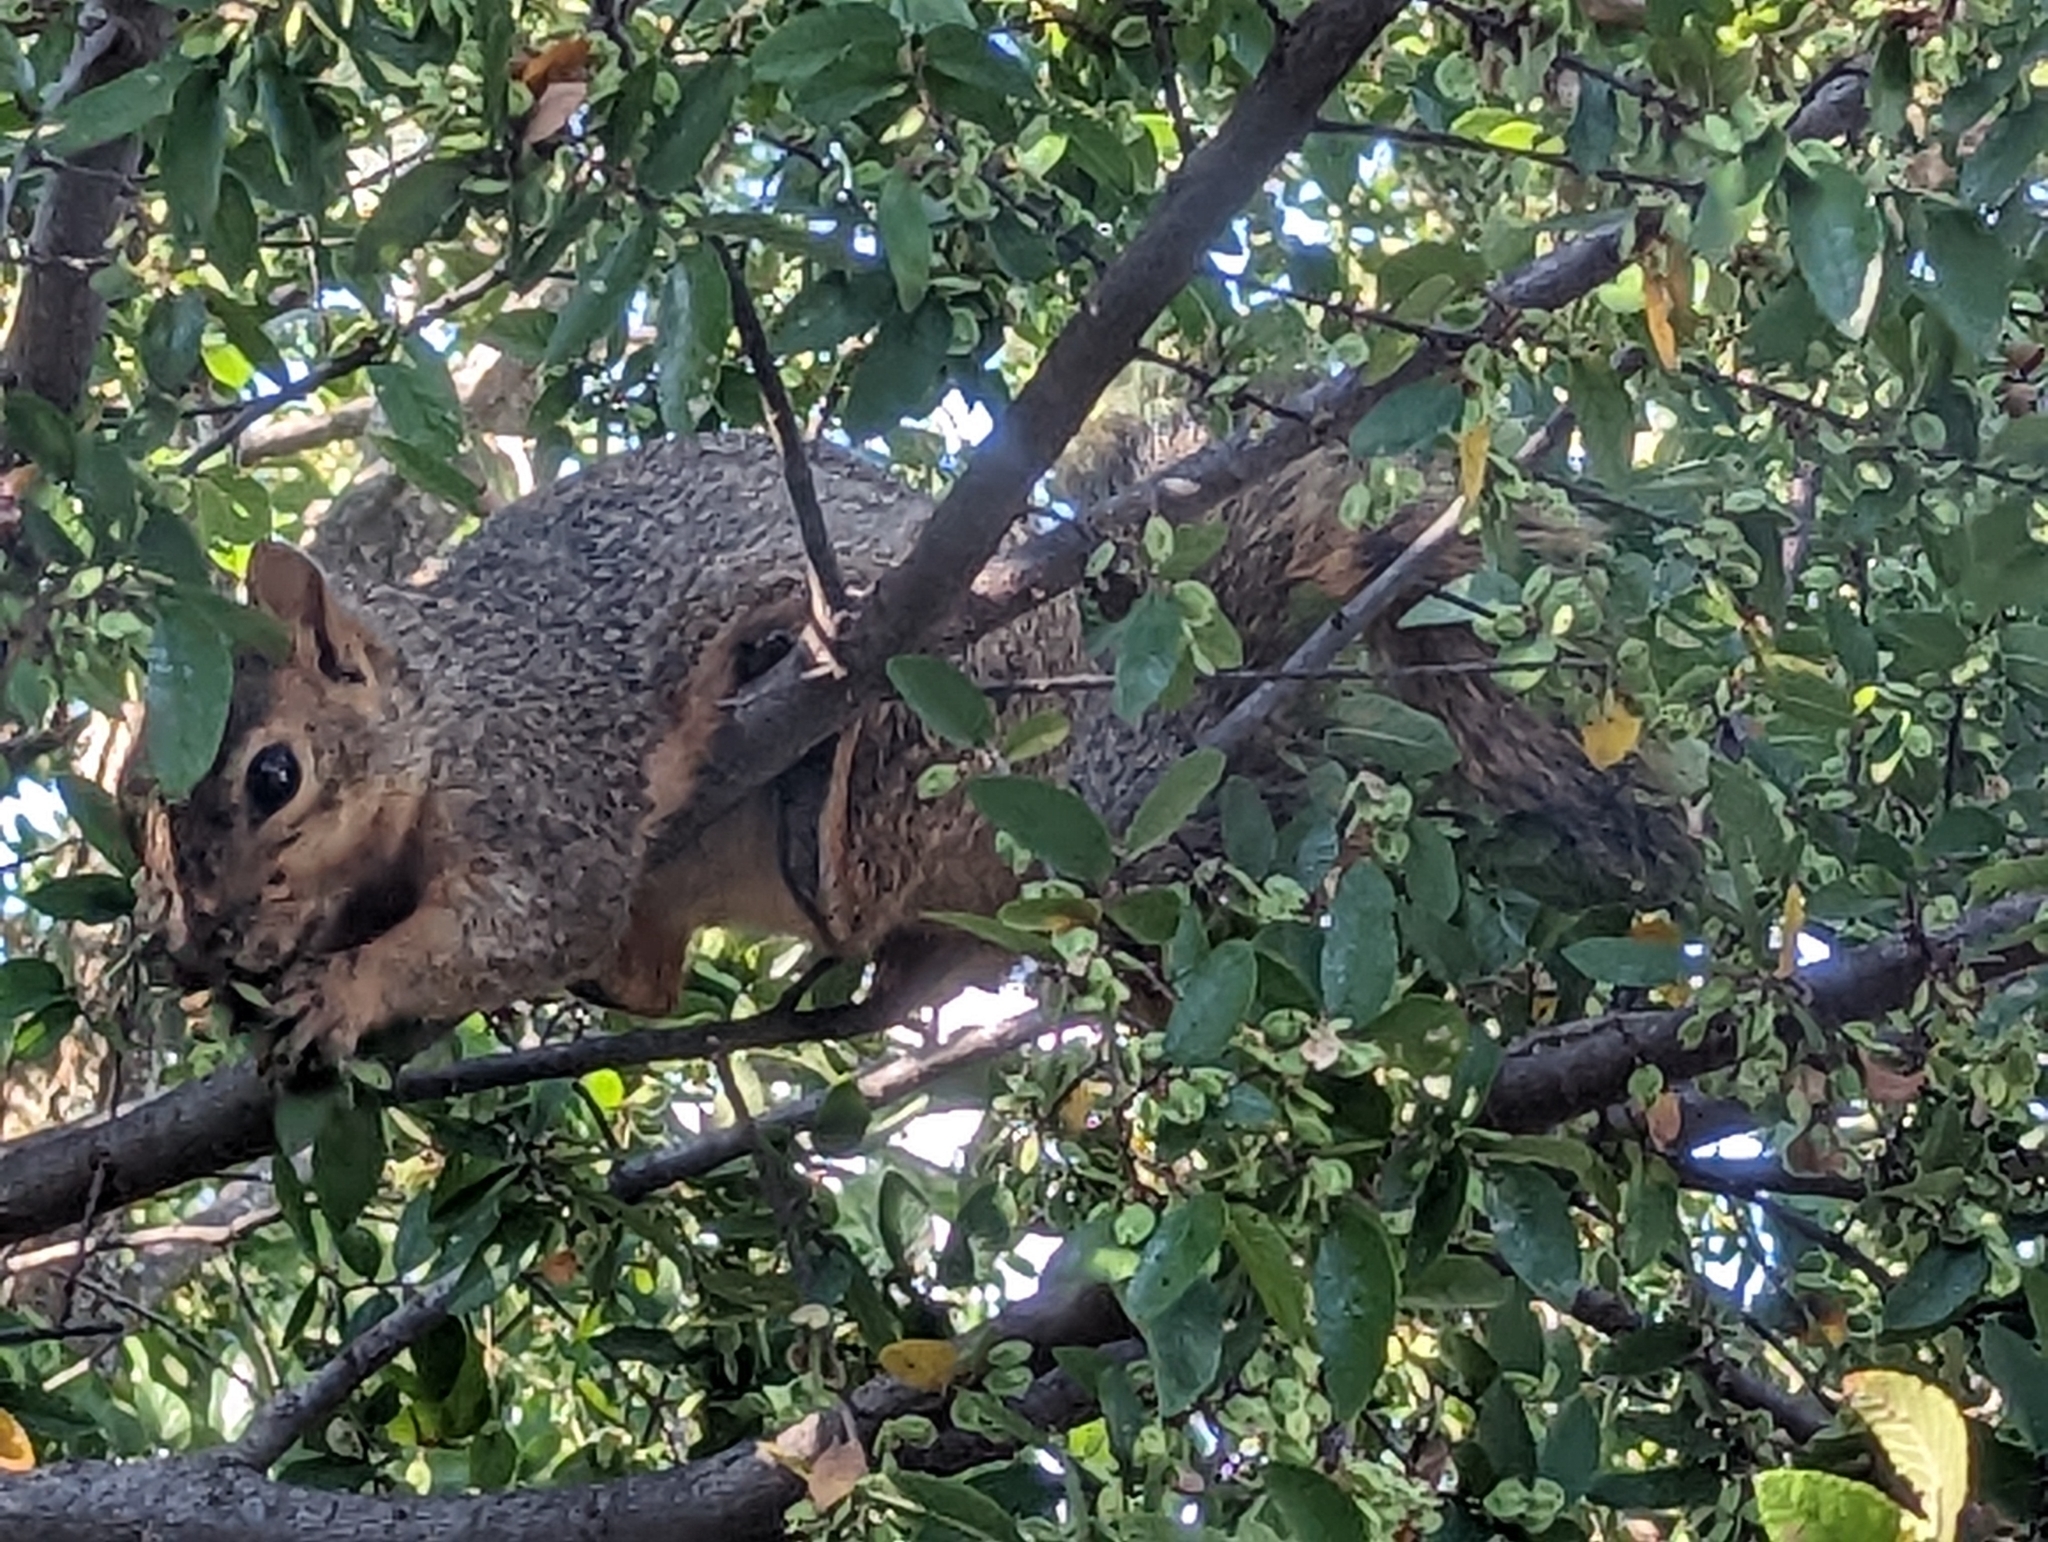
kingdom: Animalia
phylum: Chordata
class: Mammalia
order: Rodentia
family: Sciuridae
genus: Sciurus
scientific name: Sciurus niger
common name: Fox squirrel
